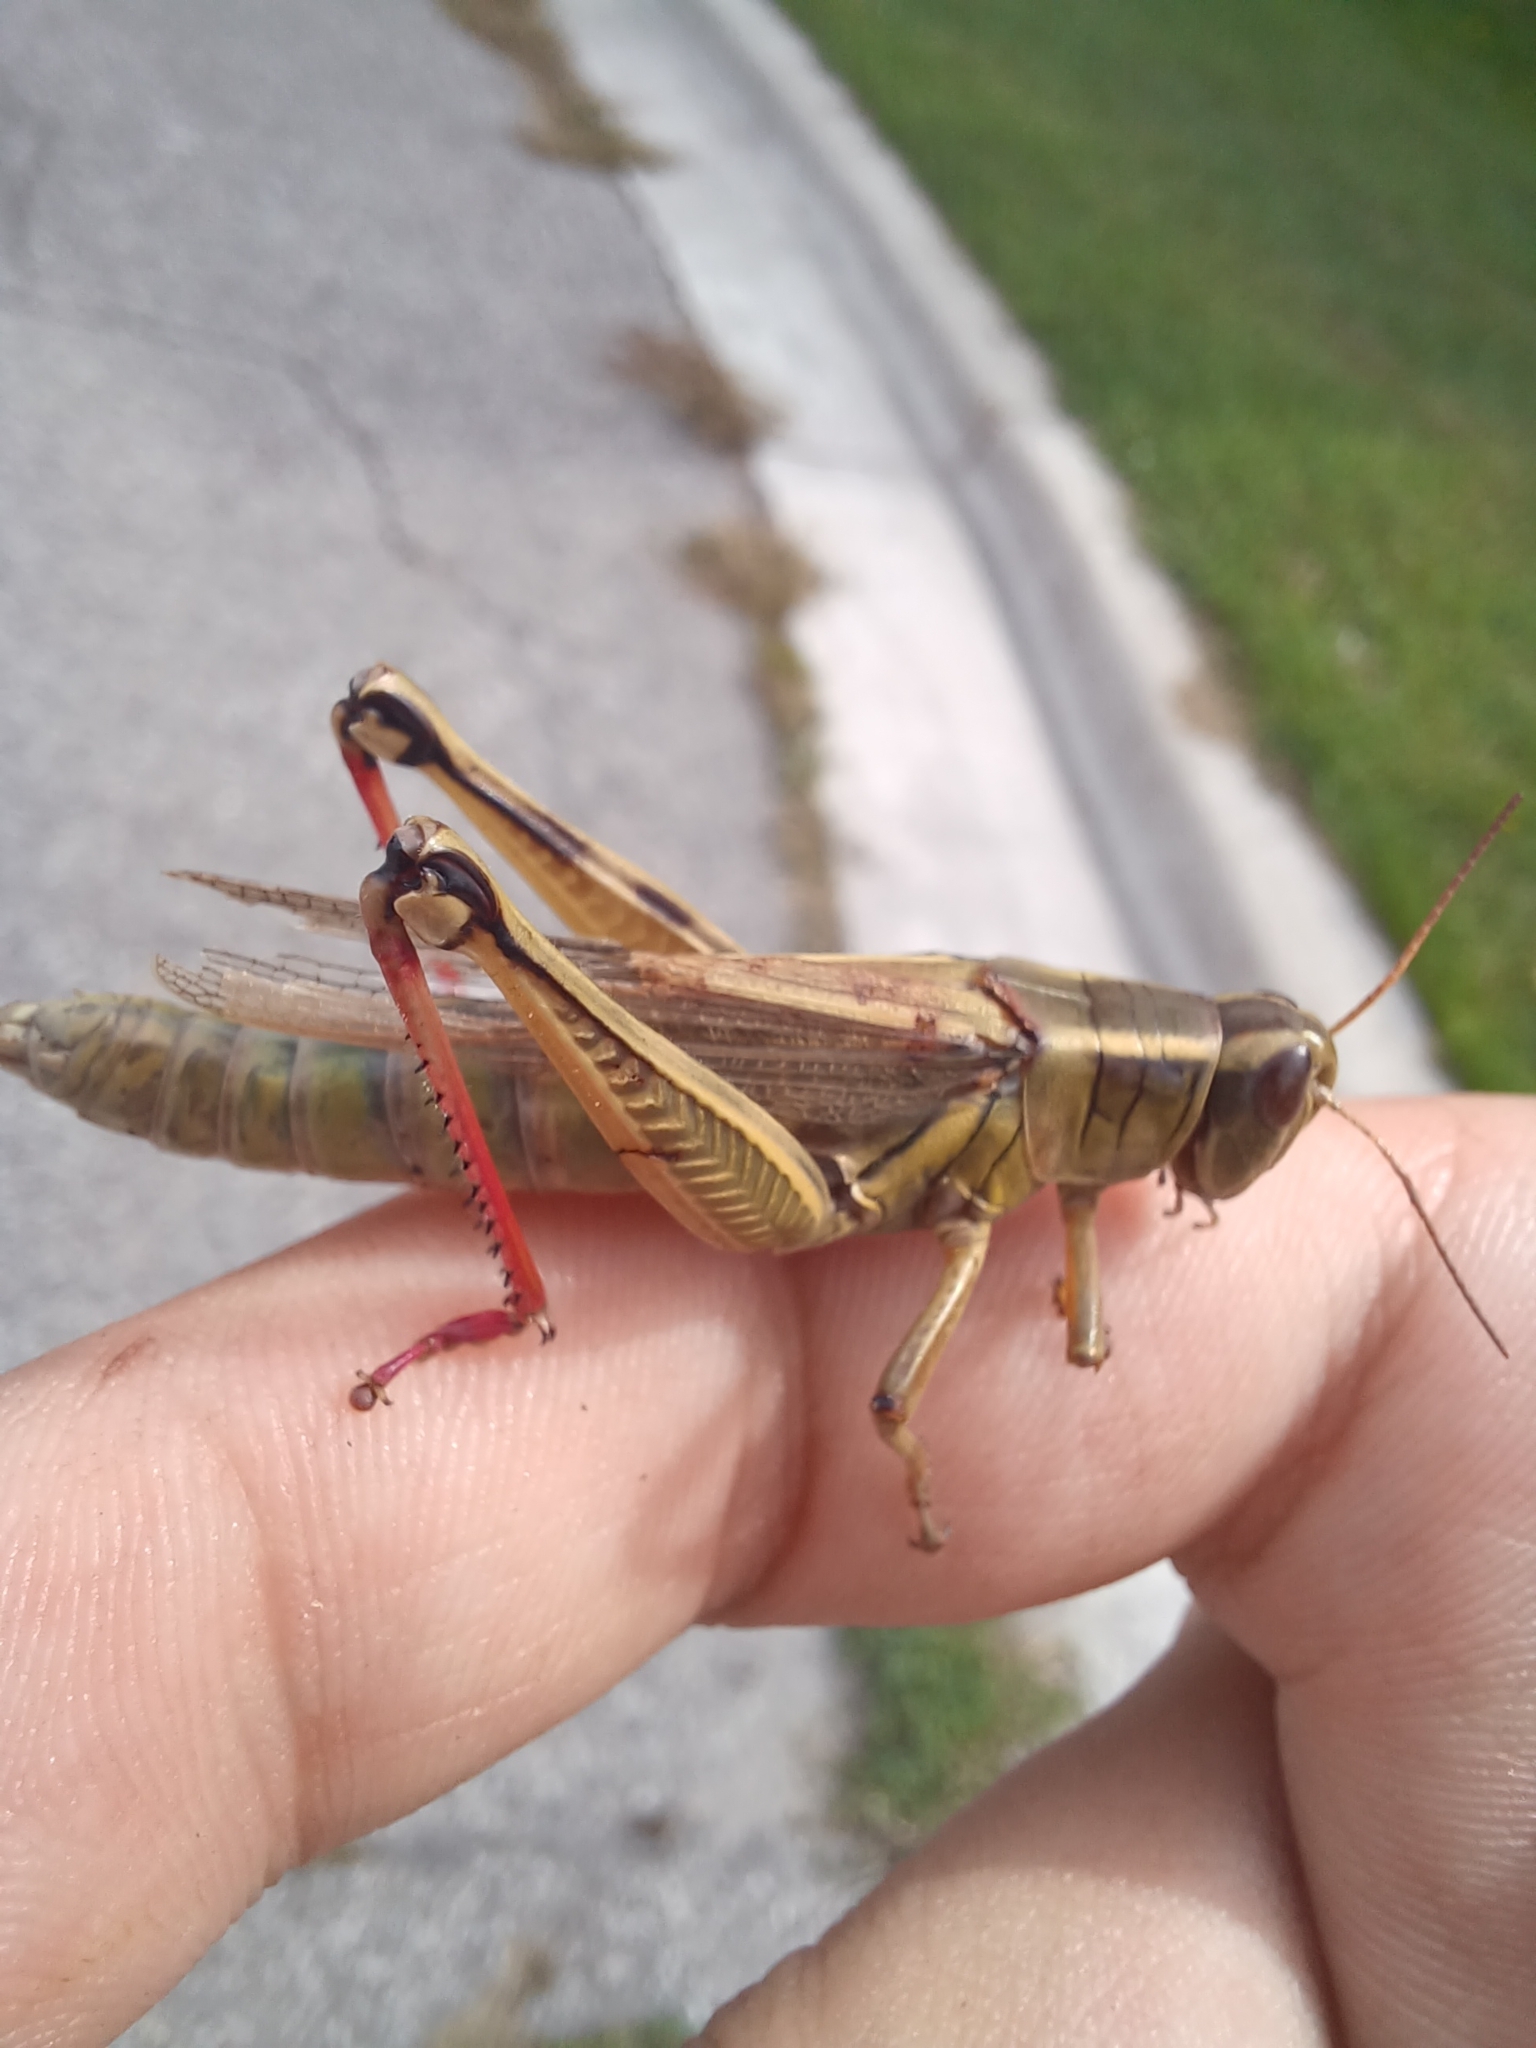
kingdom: Animalia
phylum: Arthropoda
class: Insecta
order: Orthoptera
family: Acrididae
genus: Melanoplus
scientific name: Melanoplus bivittatus
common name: Two-striped grasshopper
